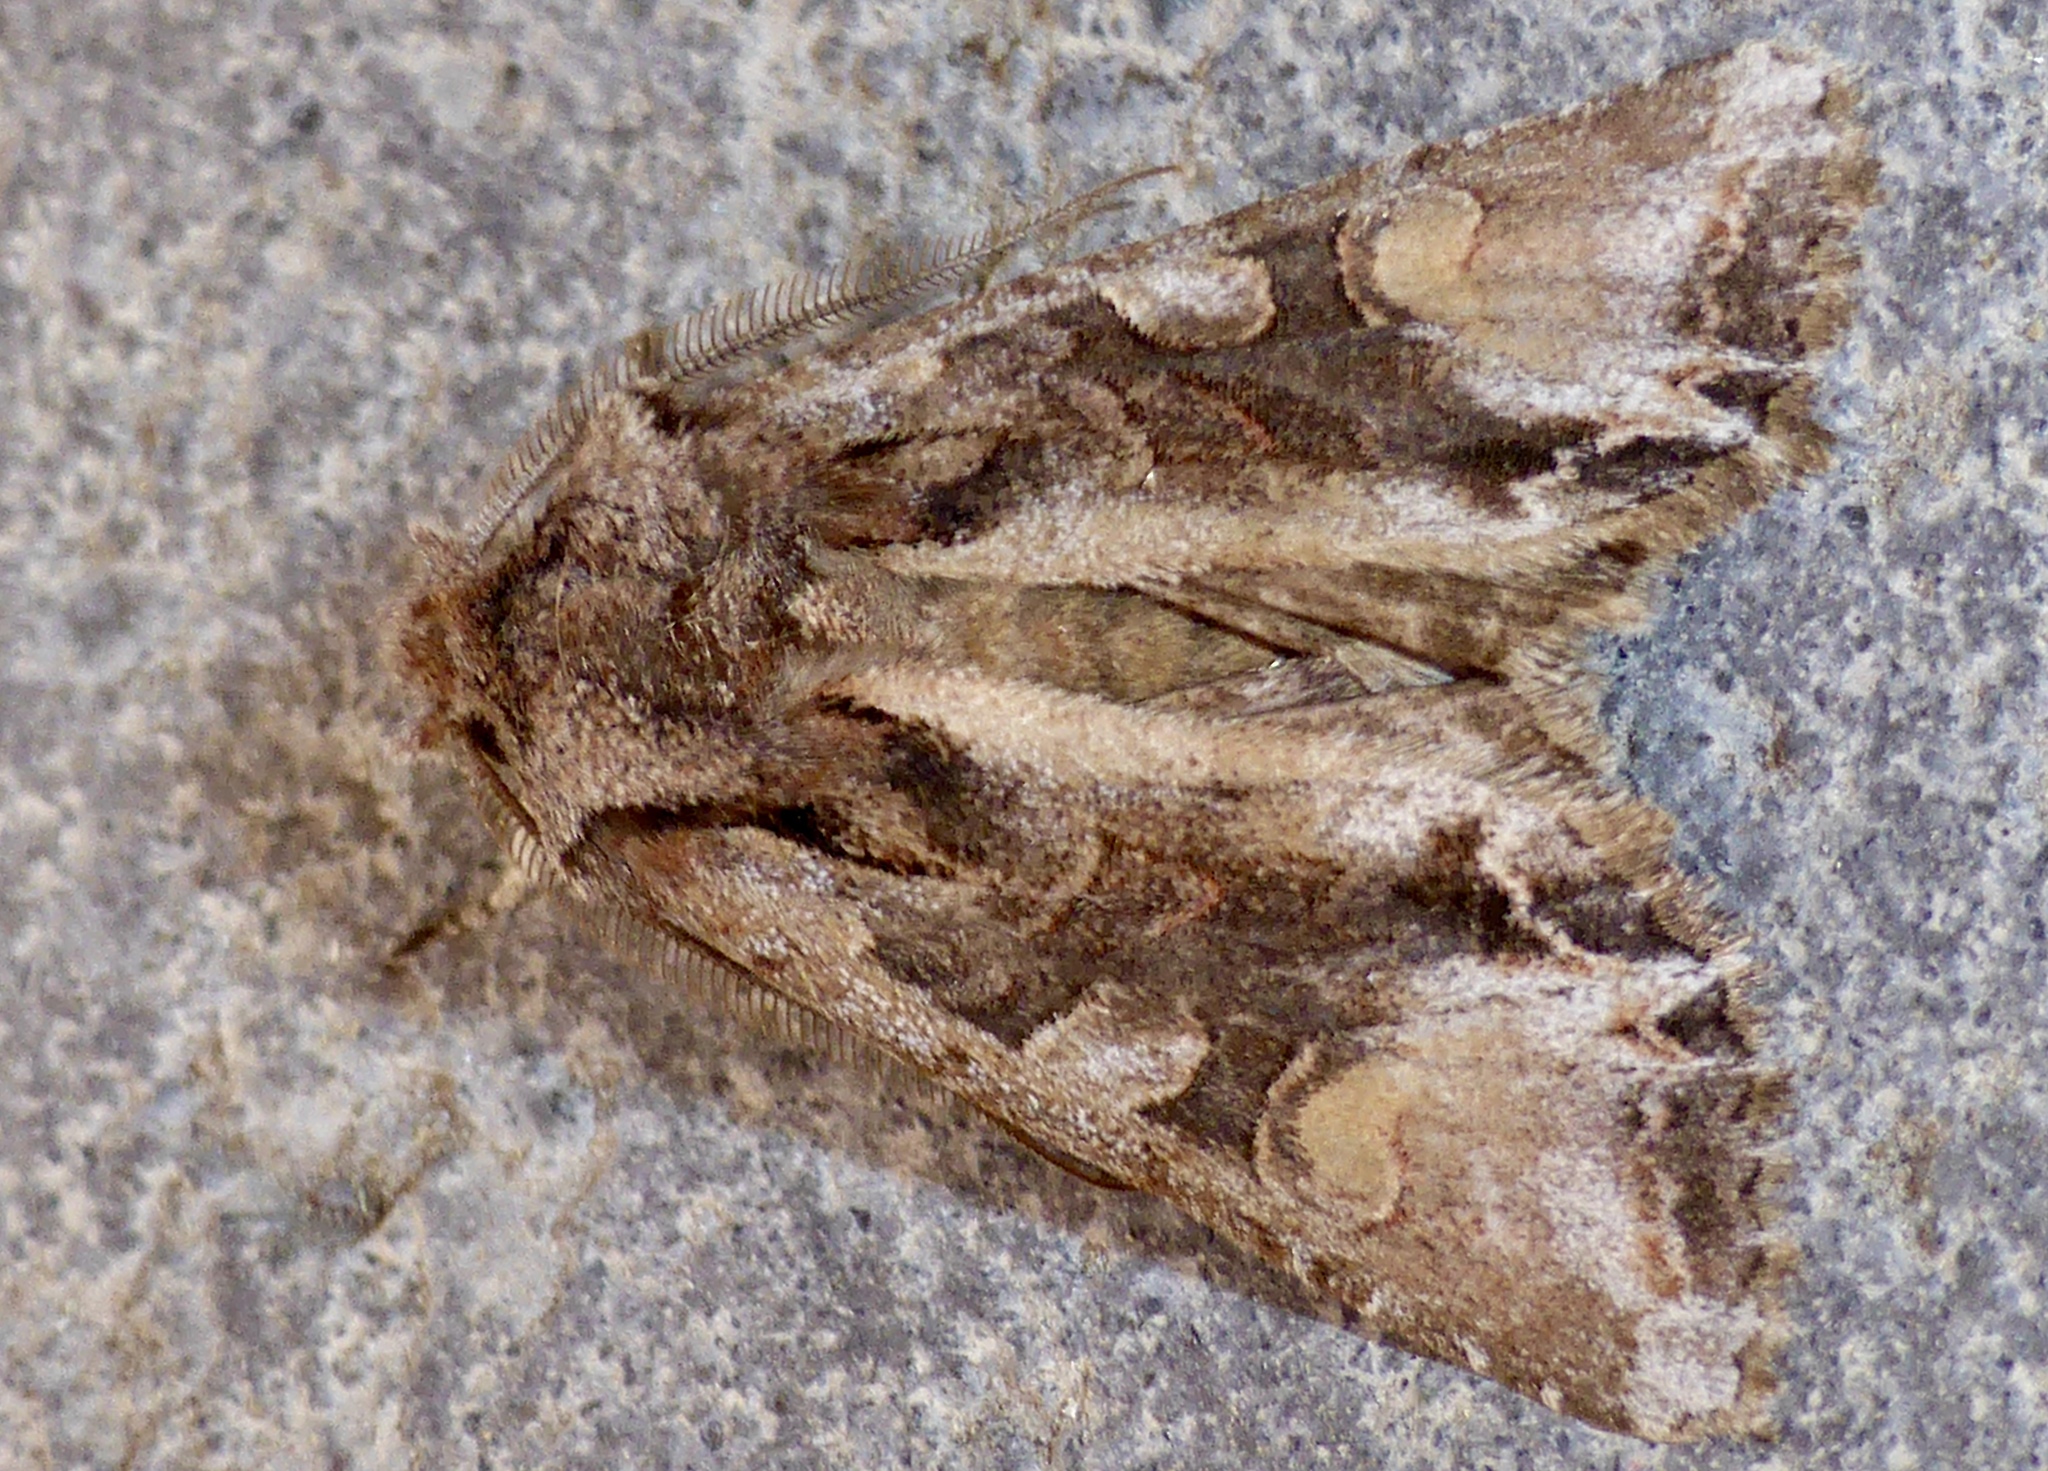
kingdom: Animalia
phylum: Arthropoda
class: Insecta
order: Lepidoptera
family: Noctuidae
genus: Ichneutica
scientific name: Ichneutica
